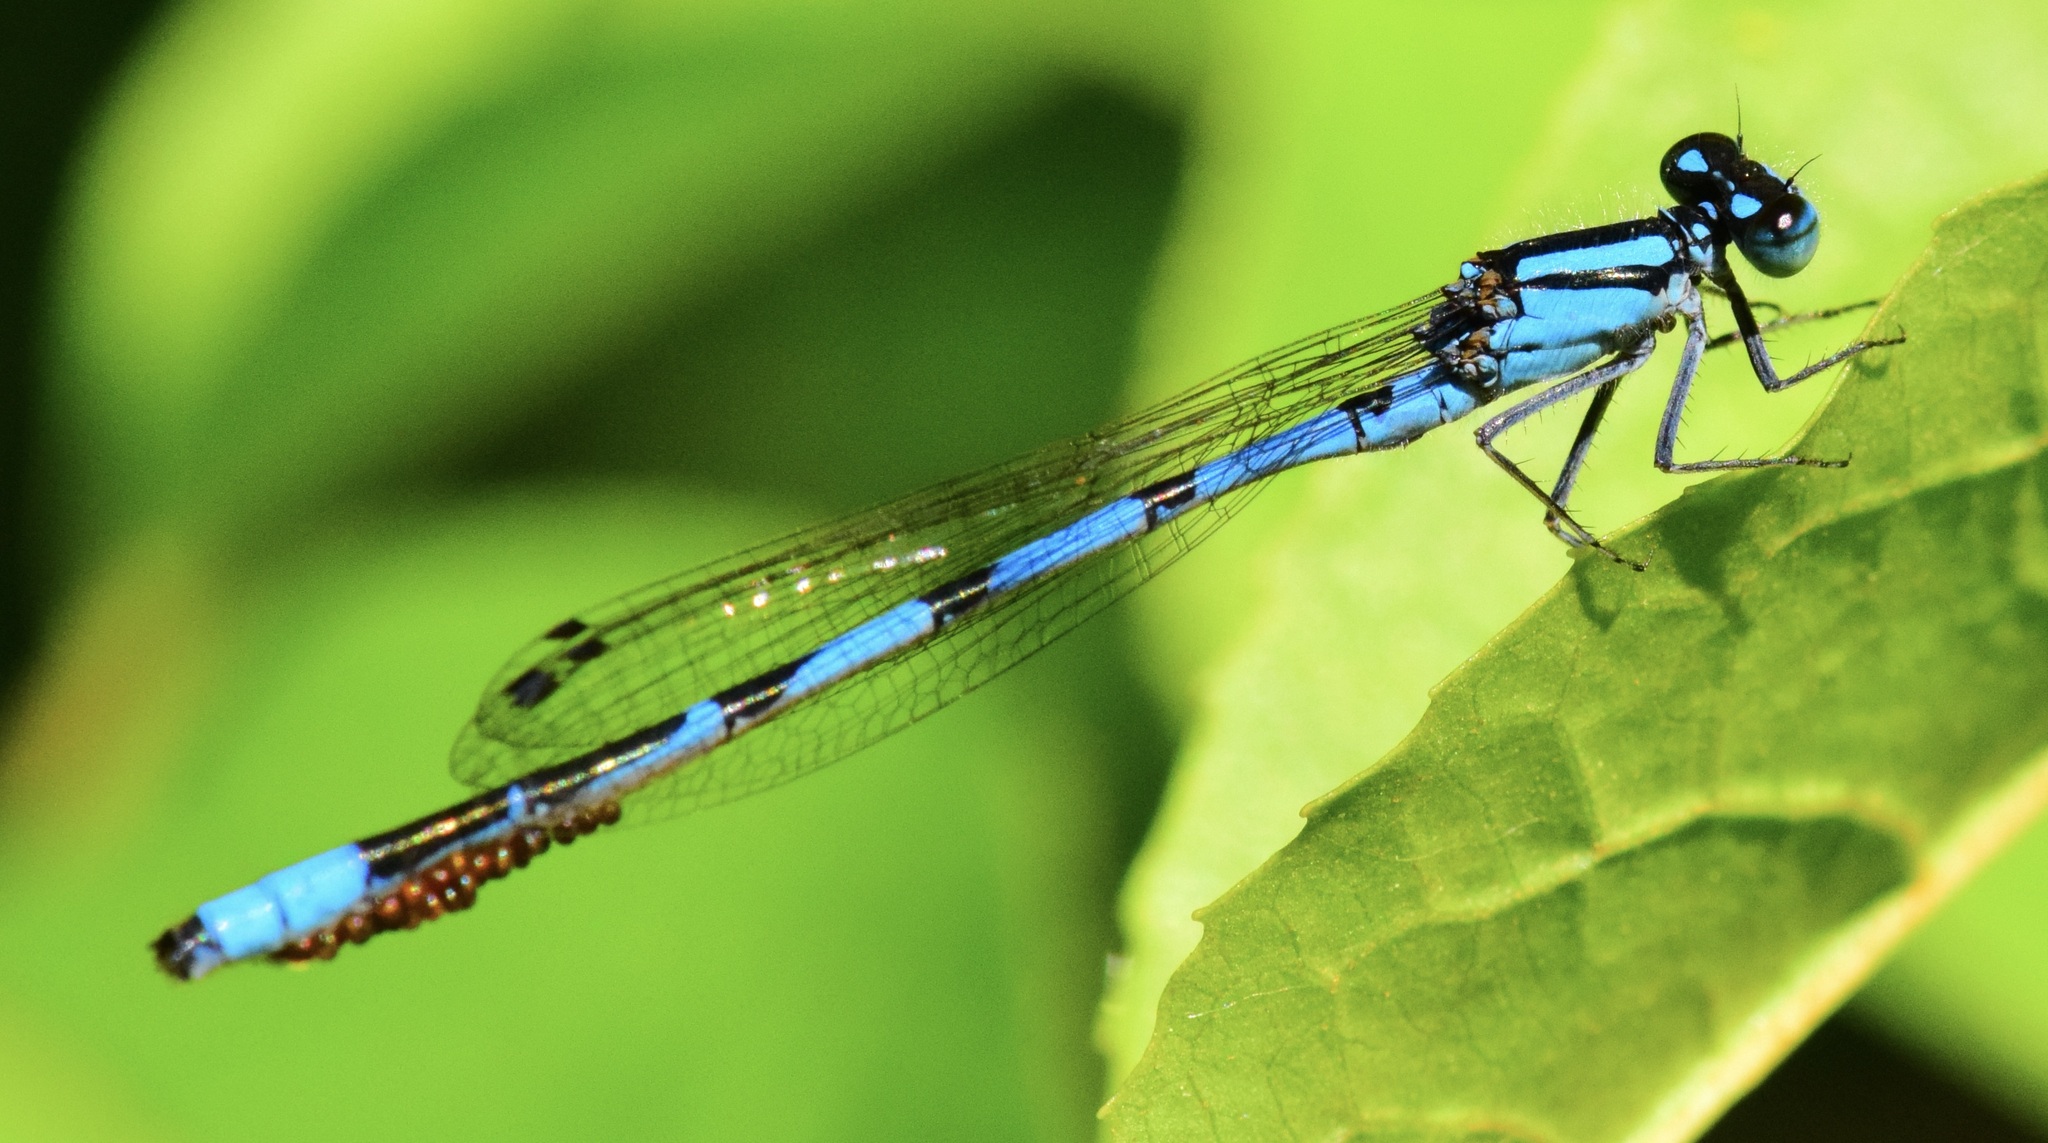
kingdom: Animalia
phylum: Arthropoda
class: Insecta
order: Odonata
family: Coenagrionidae
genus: Enallagma
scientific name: Enallagma ebrium
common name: Marsh bluet
